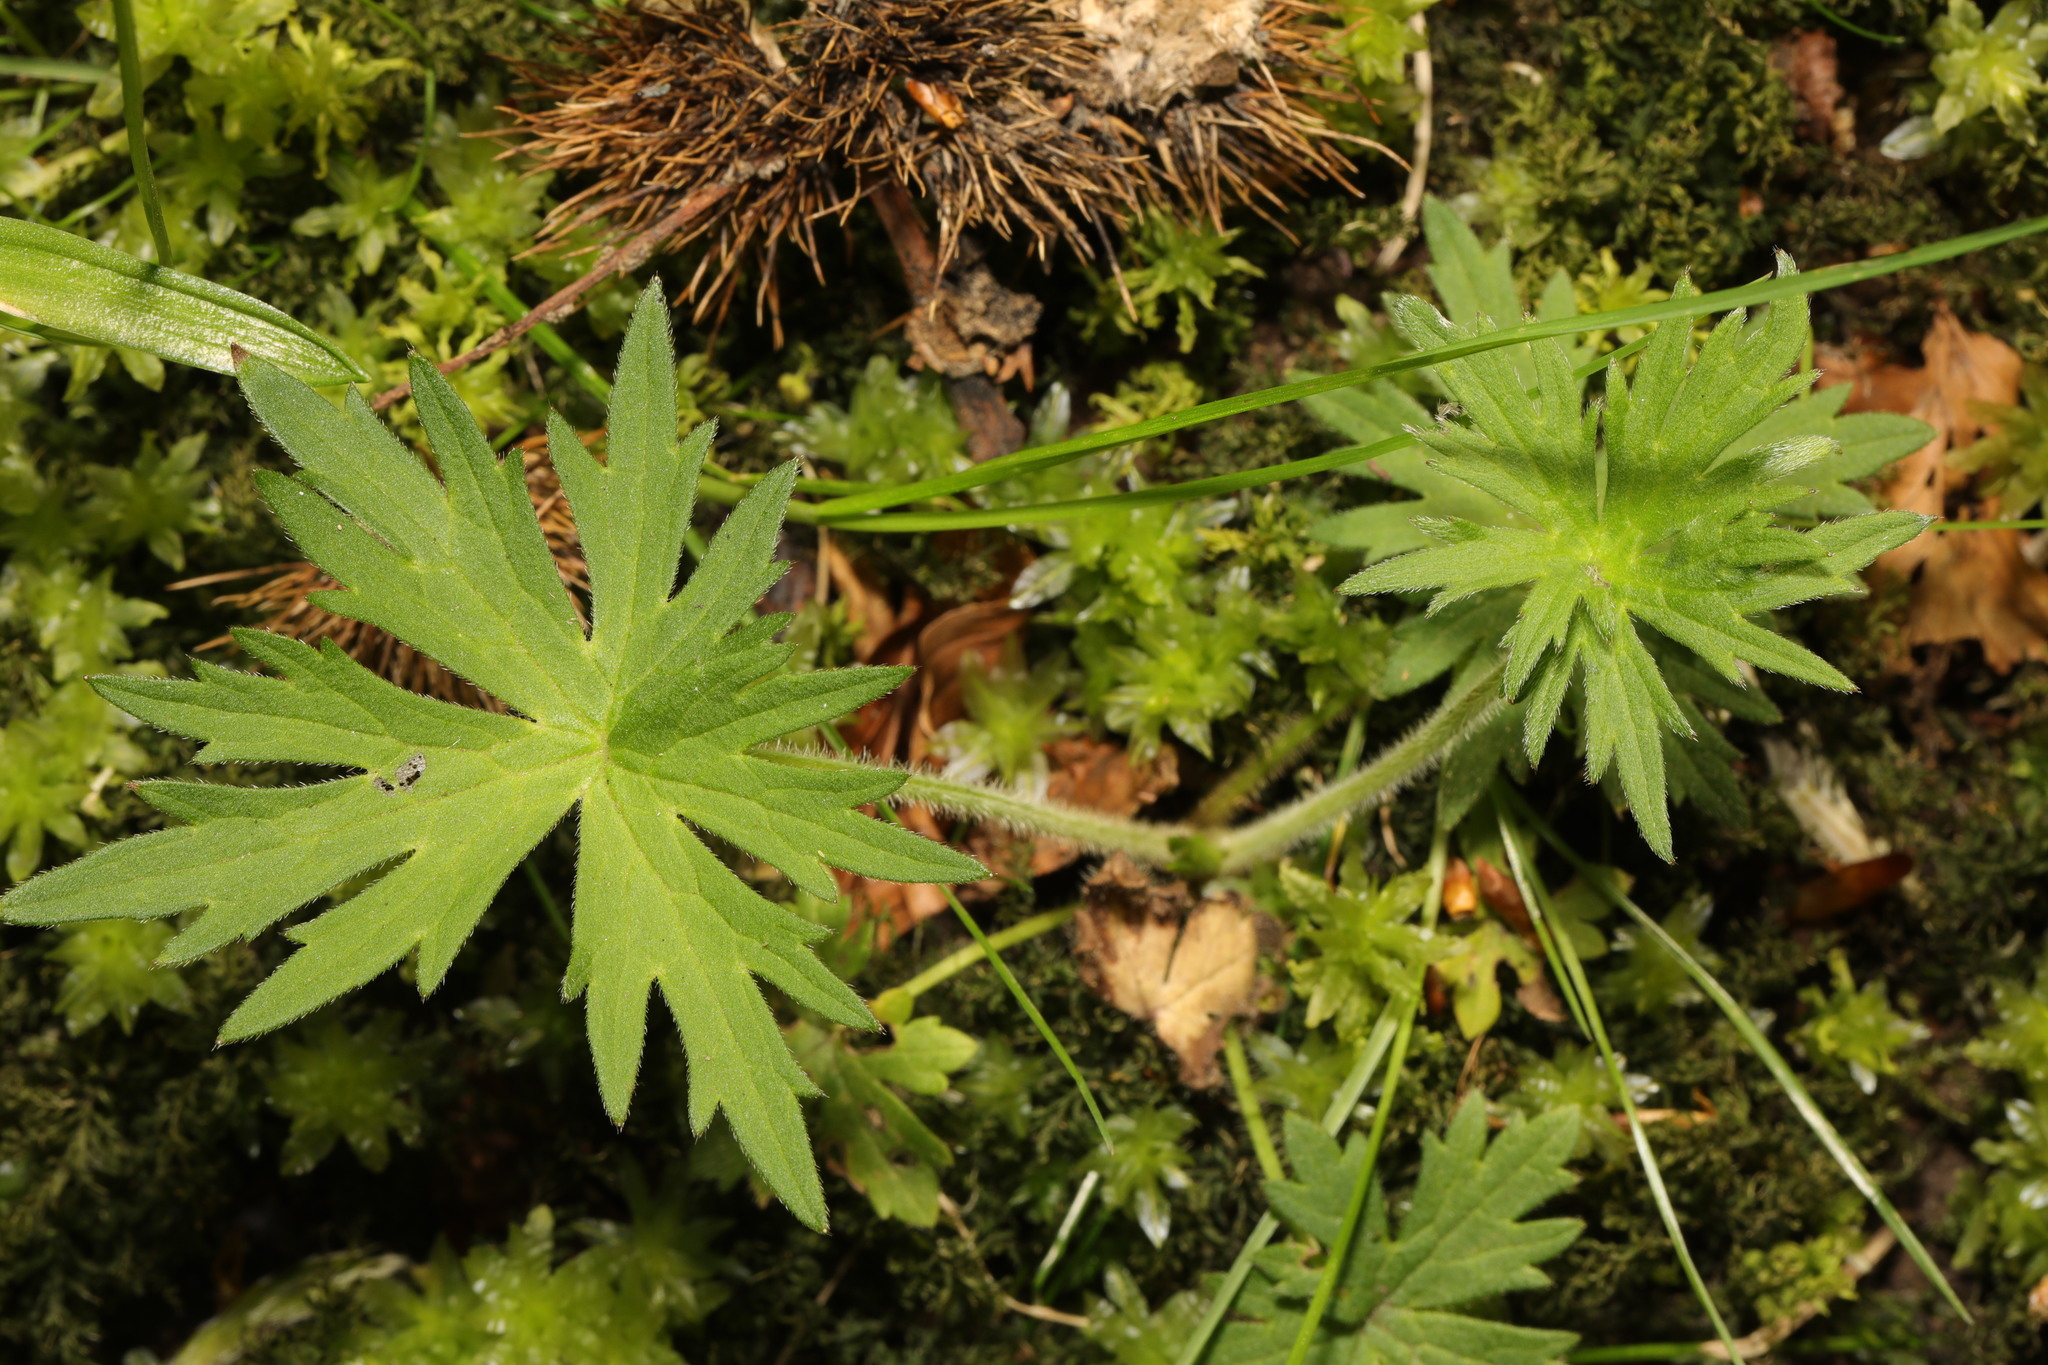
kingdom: Plantae
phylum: Tracheophyta
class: Magnoliopsida
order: Ranunculales
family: Ranunculaceae
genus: Ranunculus
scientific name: Ranunculus acris
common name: Meadow buttercup
